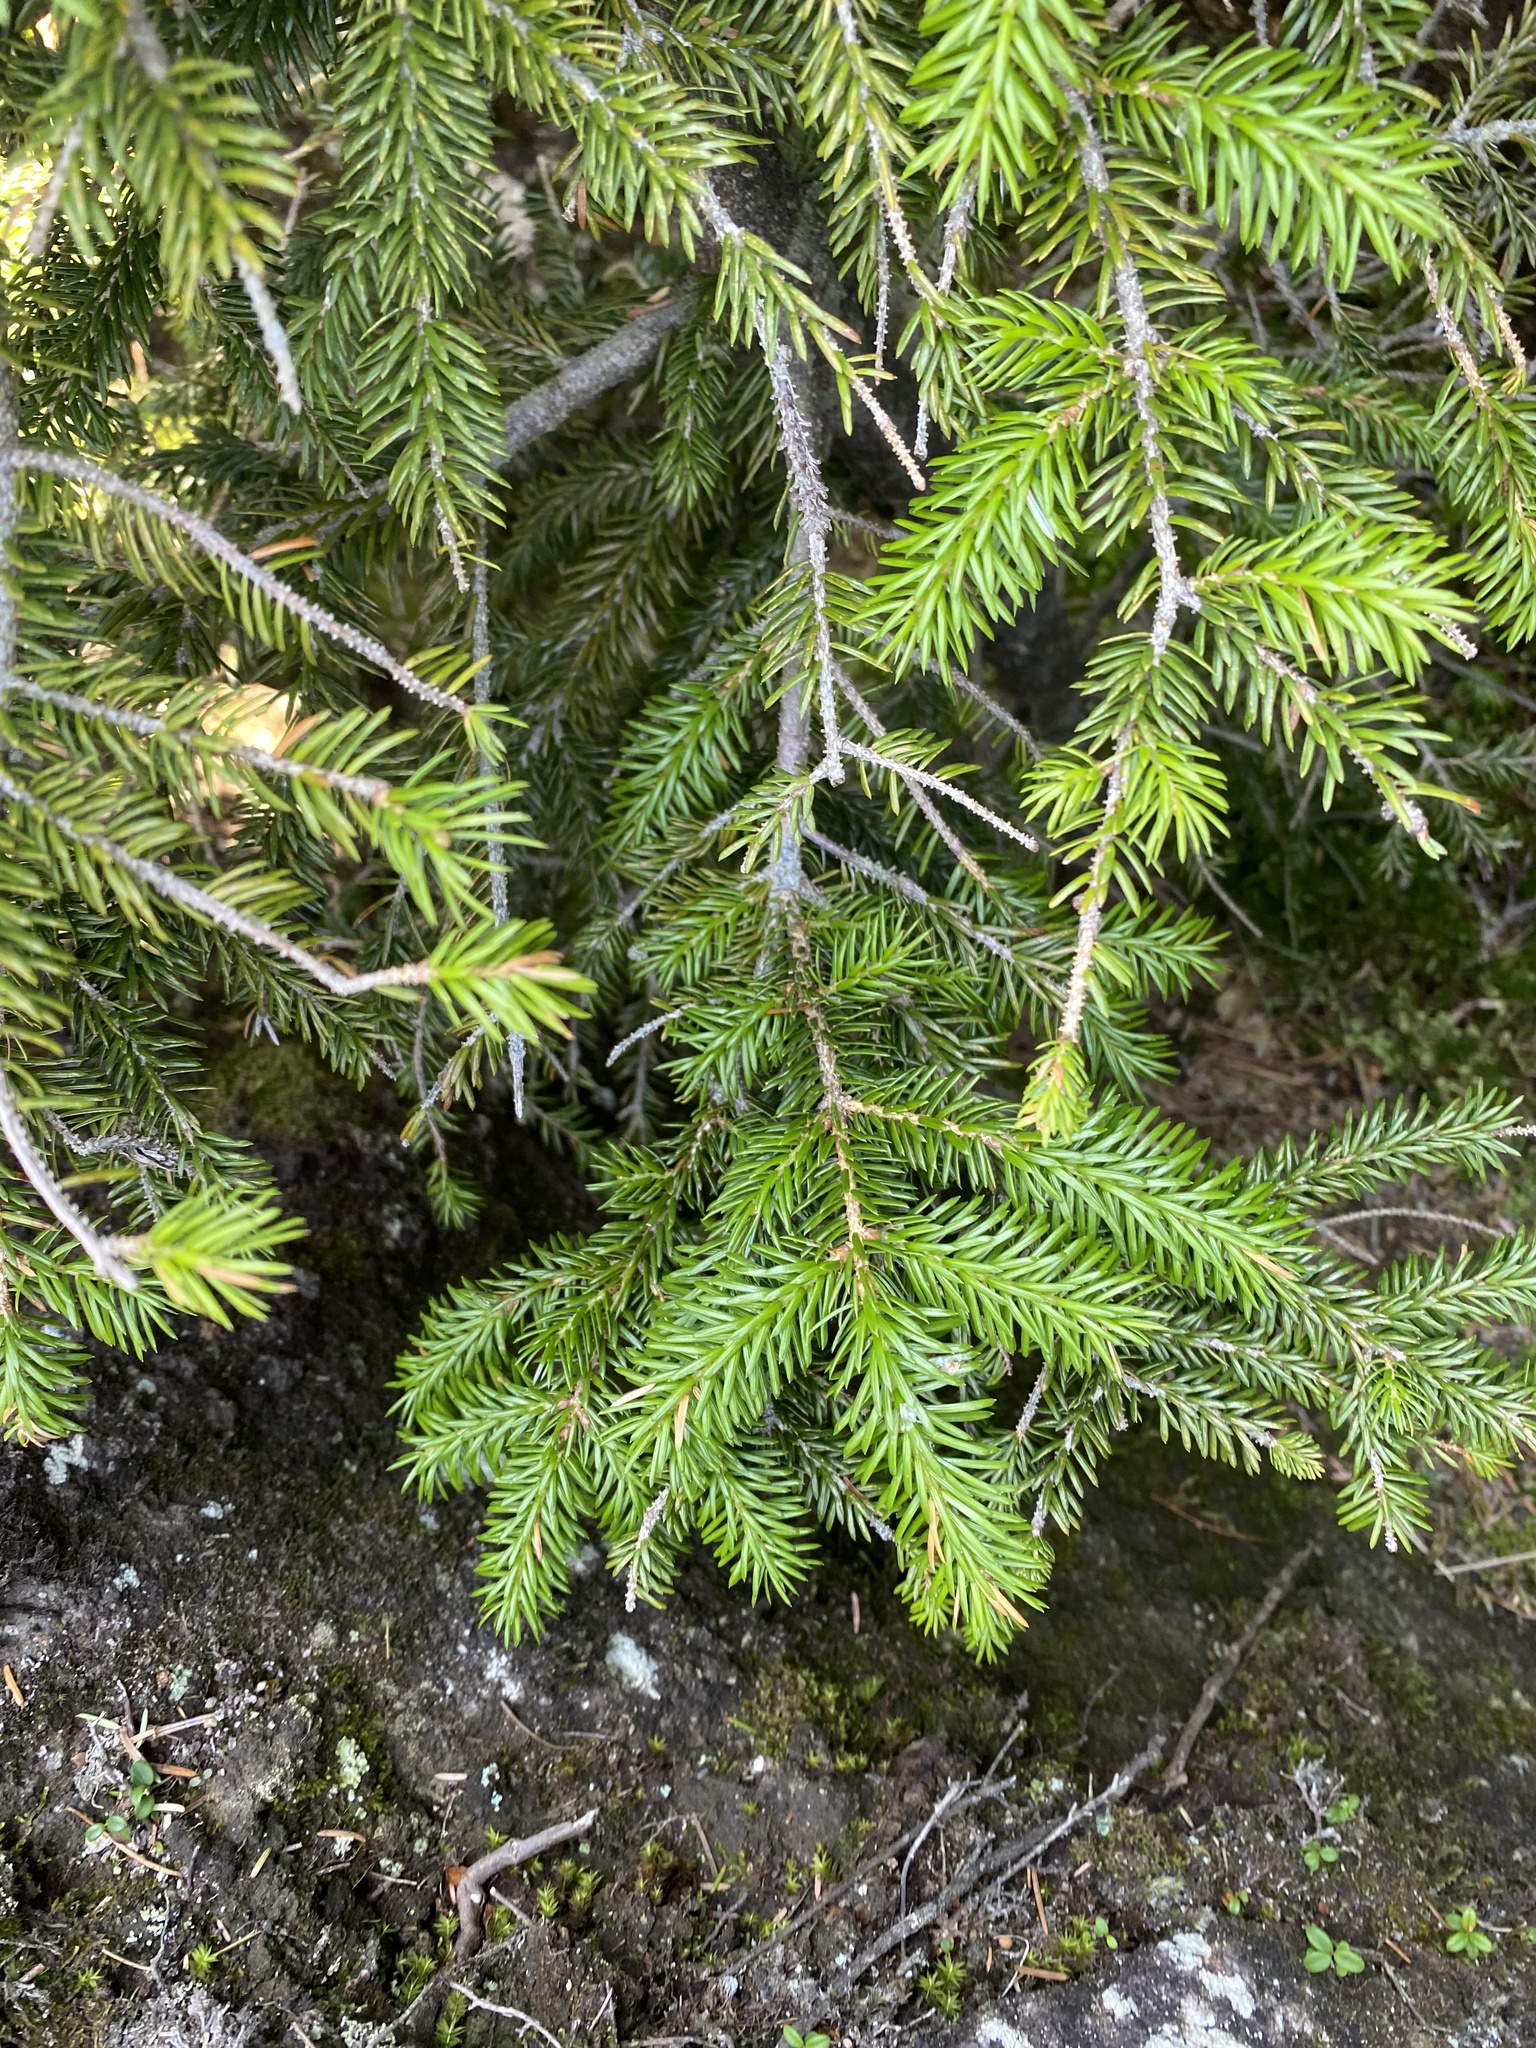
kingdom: Plantae
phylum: Tracheophyta
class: Pinopsida
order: Pinales
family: Pinaceae
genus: Picea
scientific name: Picea jezoensis
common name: Yeddo spruce
